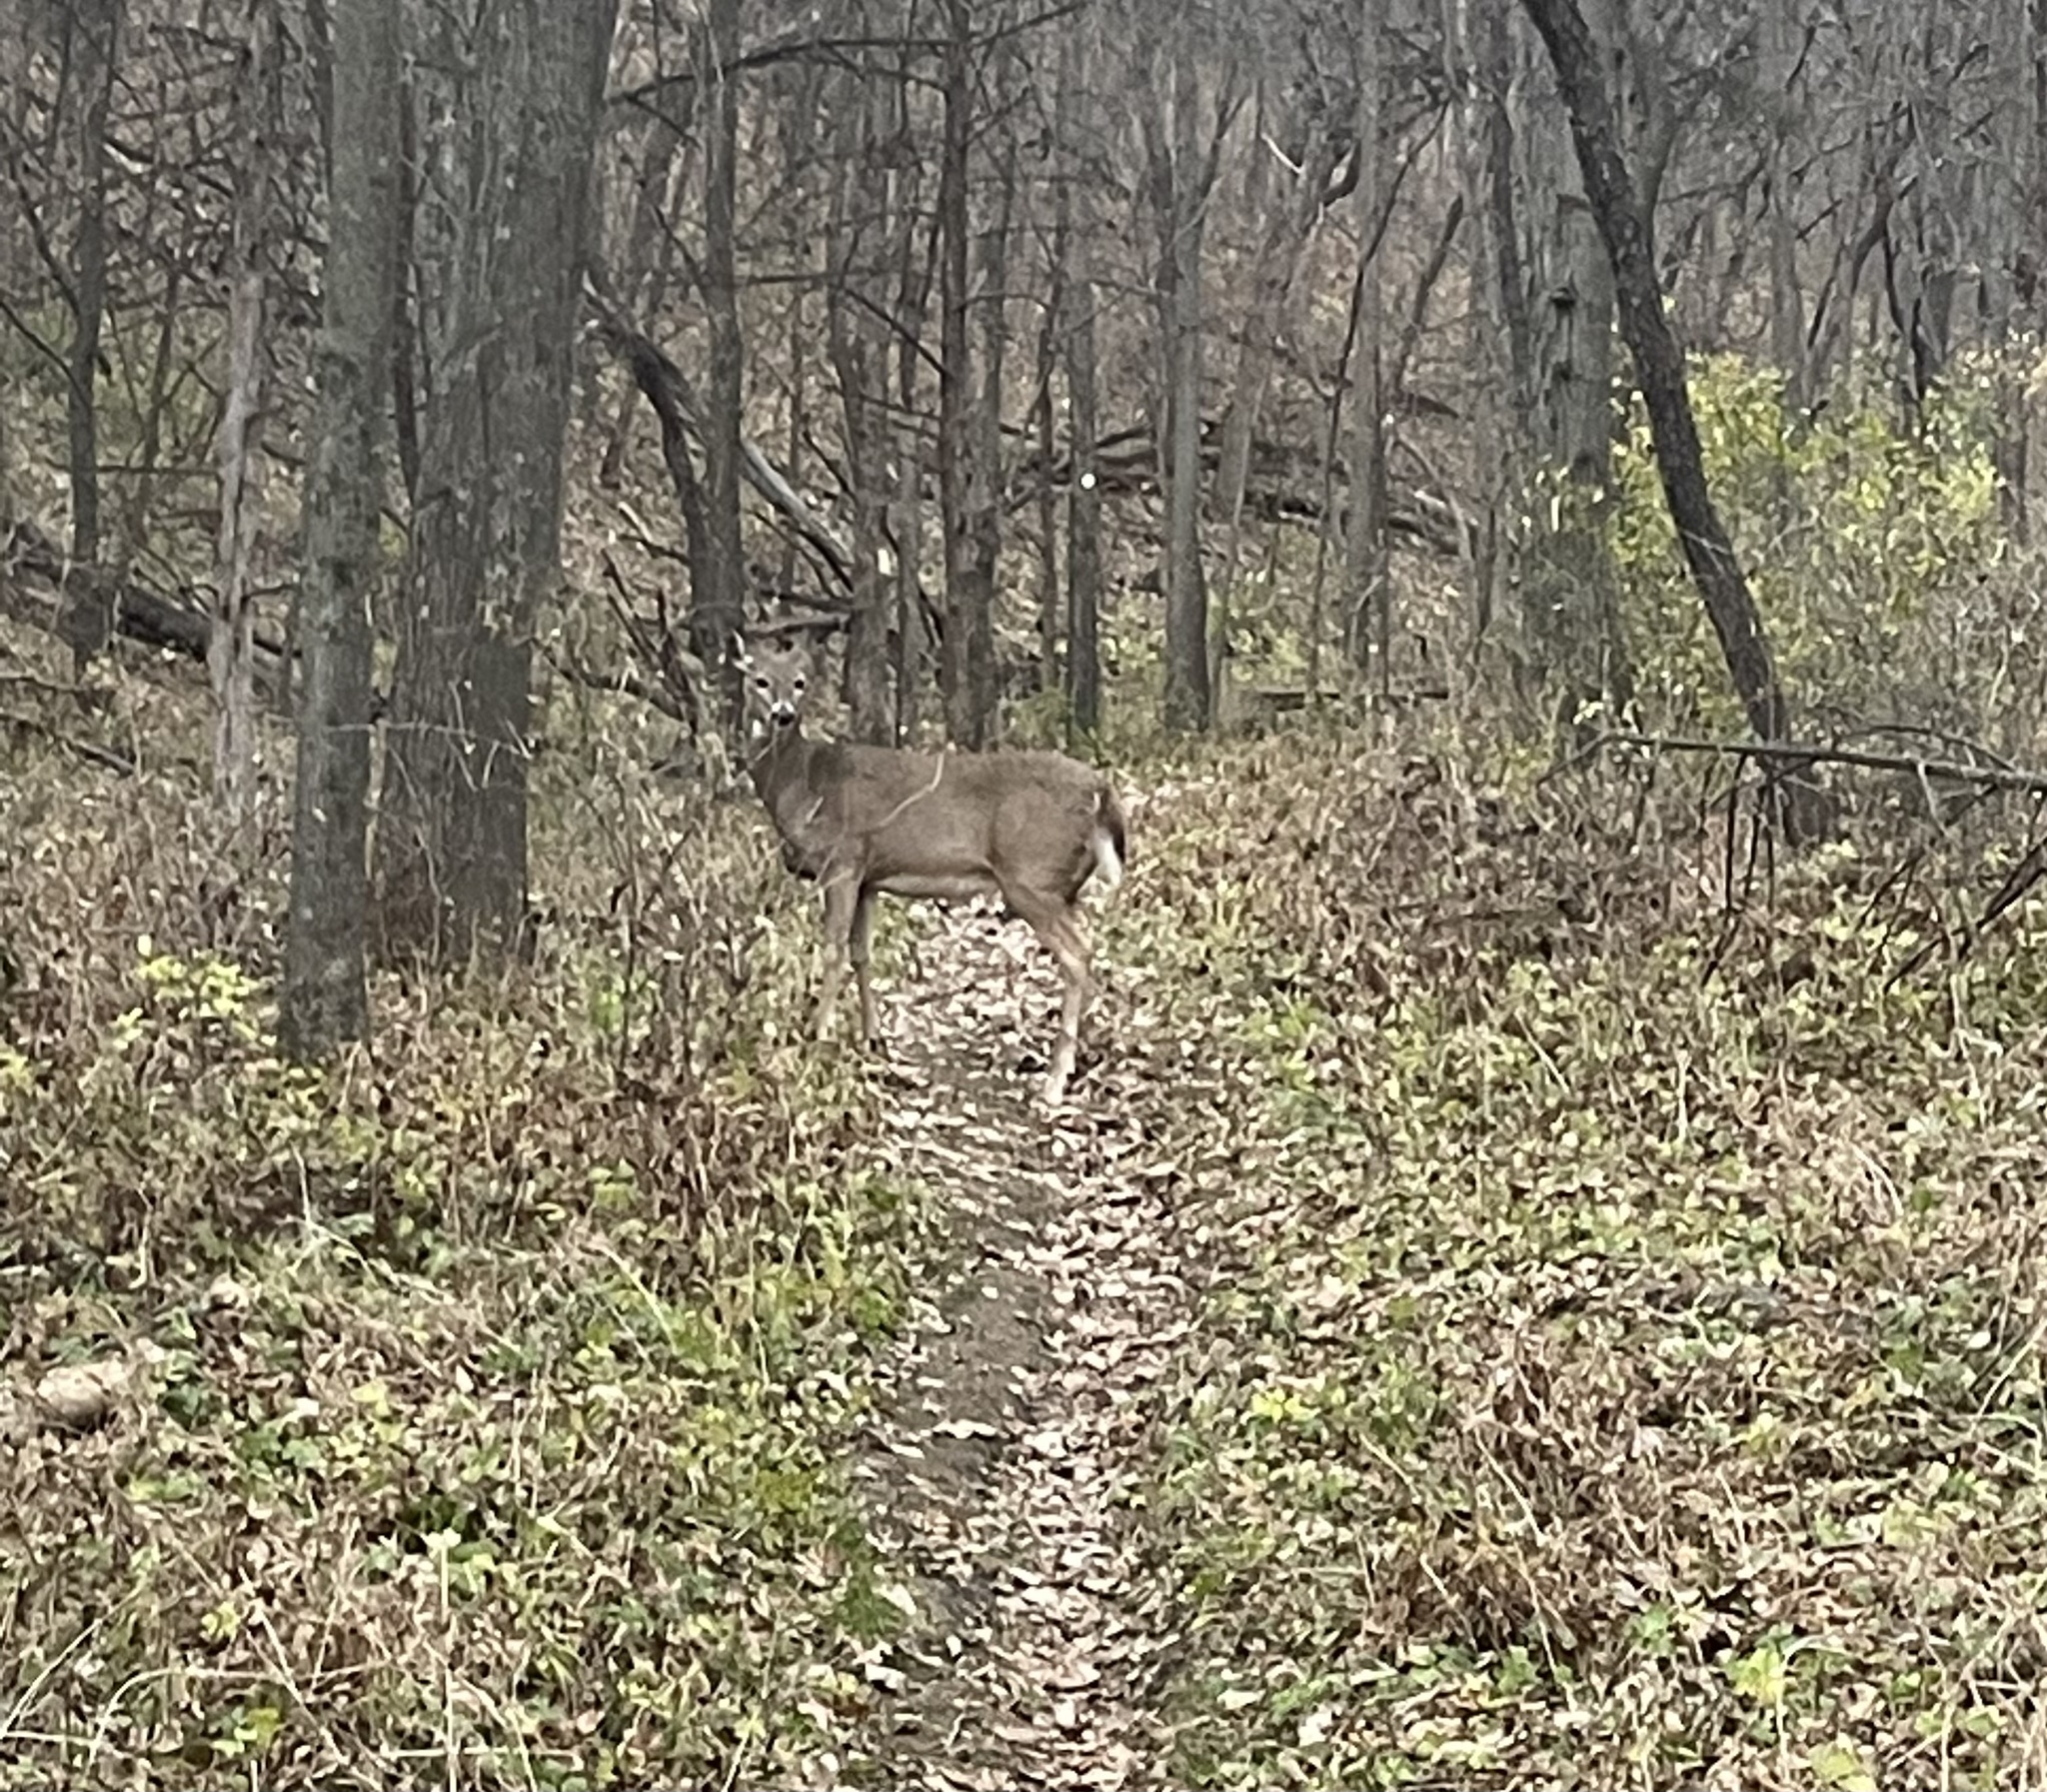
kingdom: Animalia
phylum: Chordata
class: Mammalia
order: Artiodactyla
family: Cervidae
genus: Odocoileus
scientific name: Odocoileus virginianus
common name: White-tailed deer
